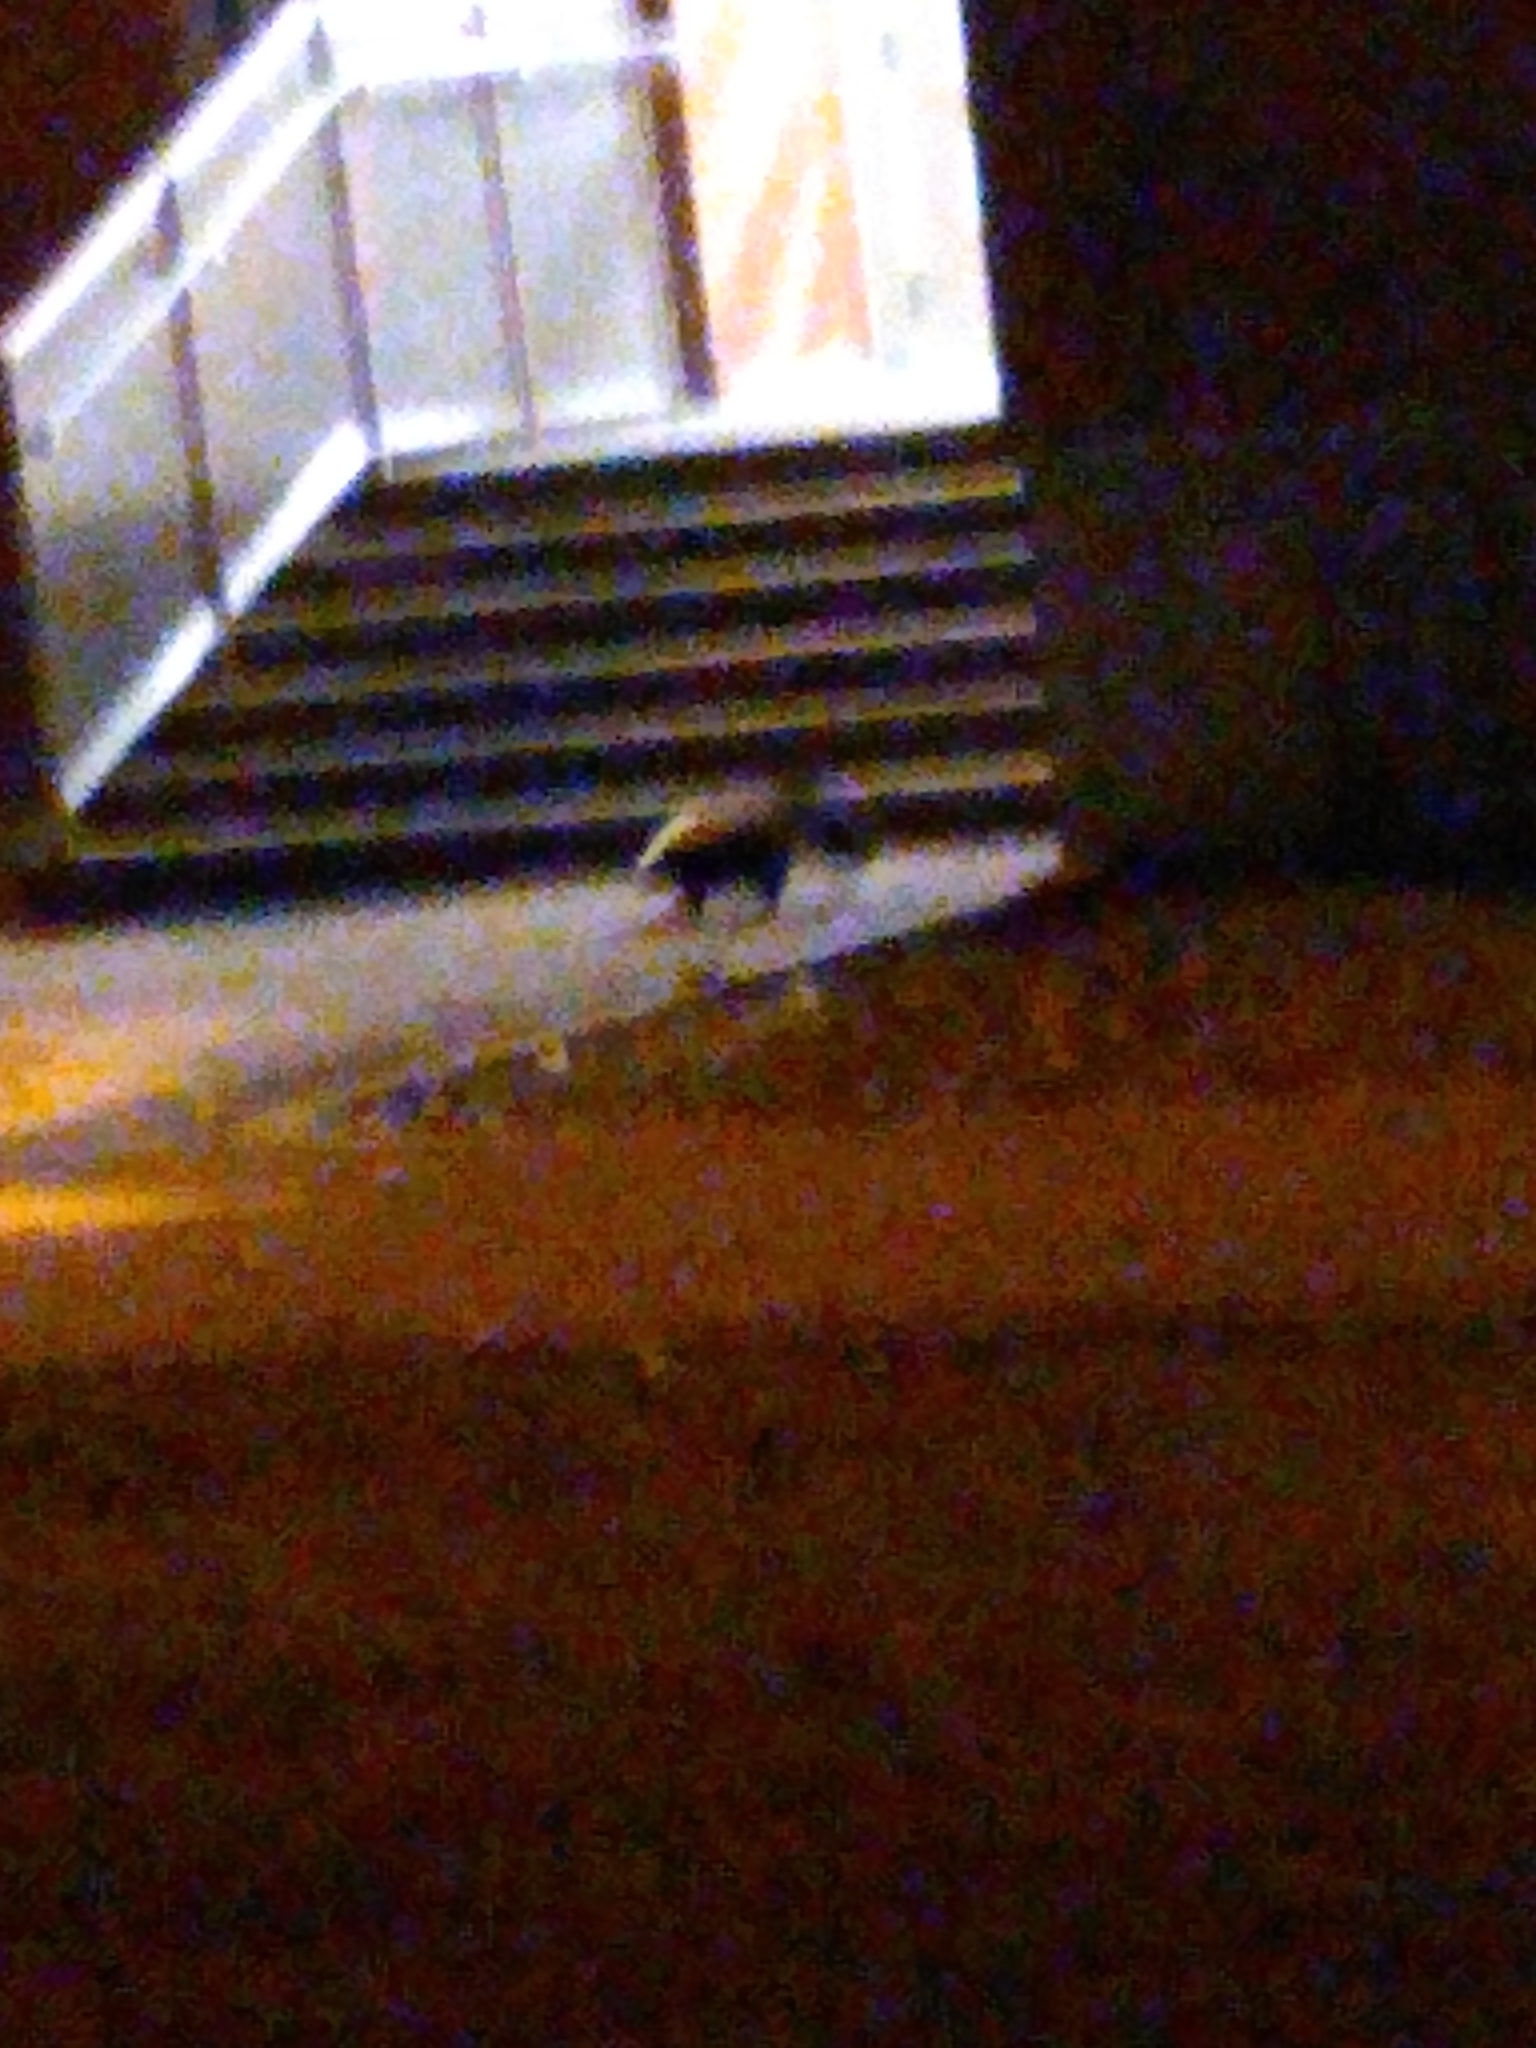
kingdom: Animalia
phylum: Chordata
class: Mammalia
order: Carnivora
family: Mephitidae
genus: Mephitis
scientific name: Mephitis mephitis
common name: Striped skunk
